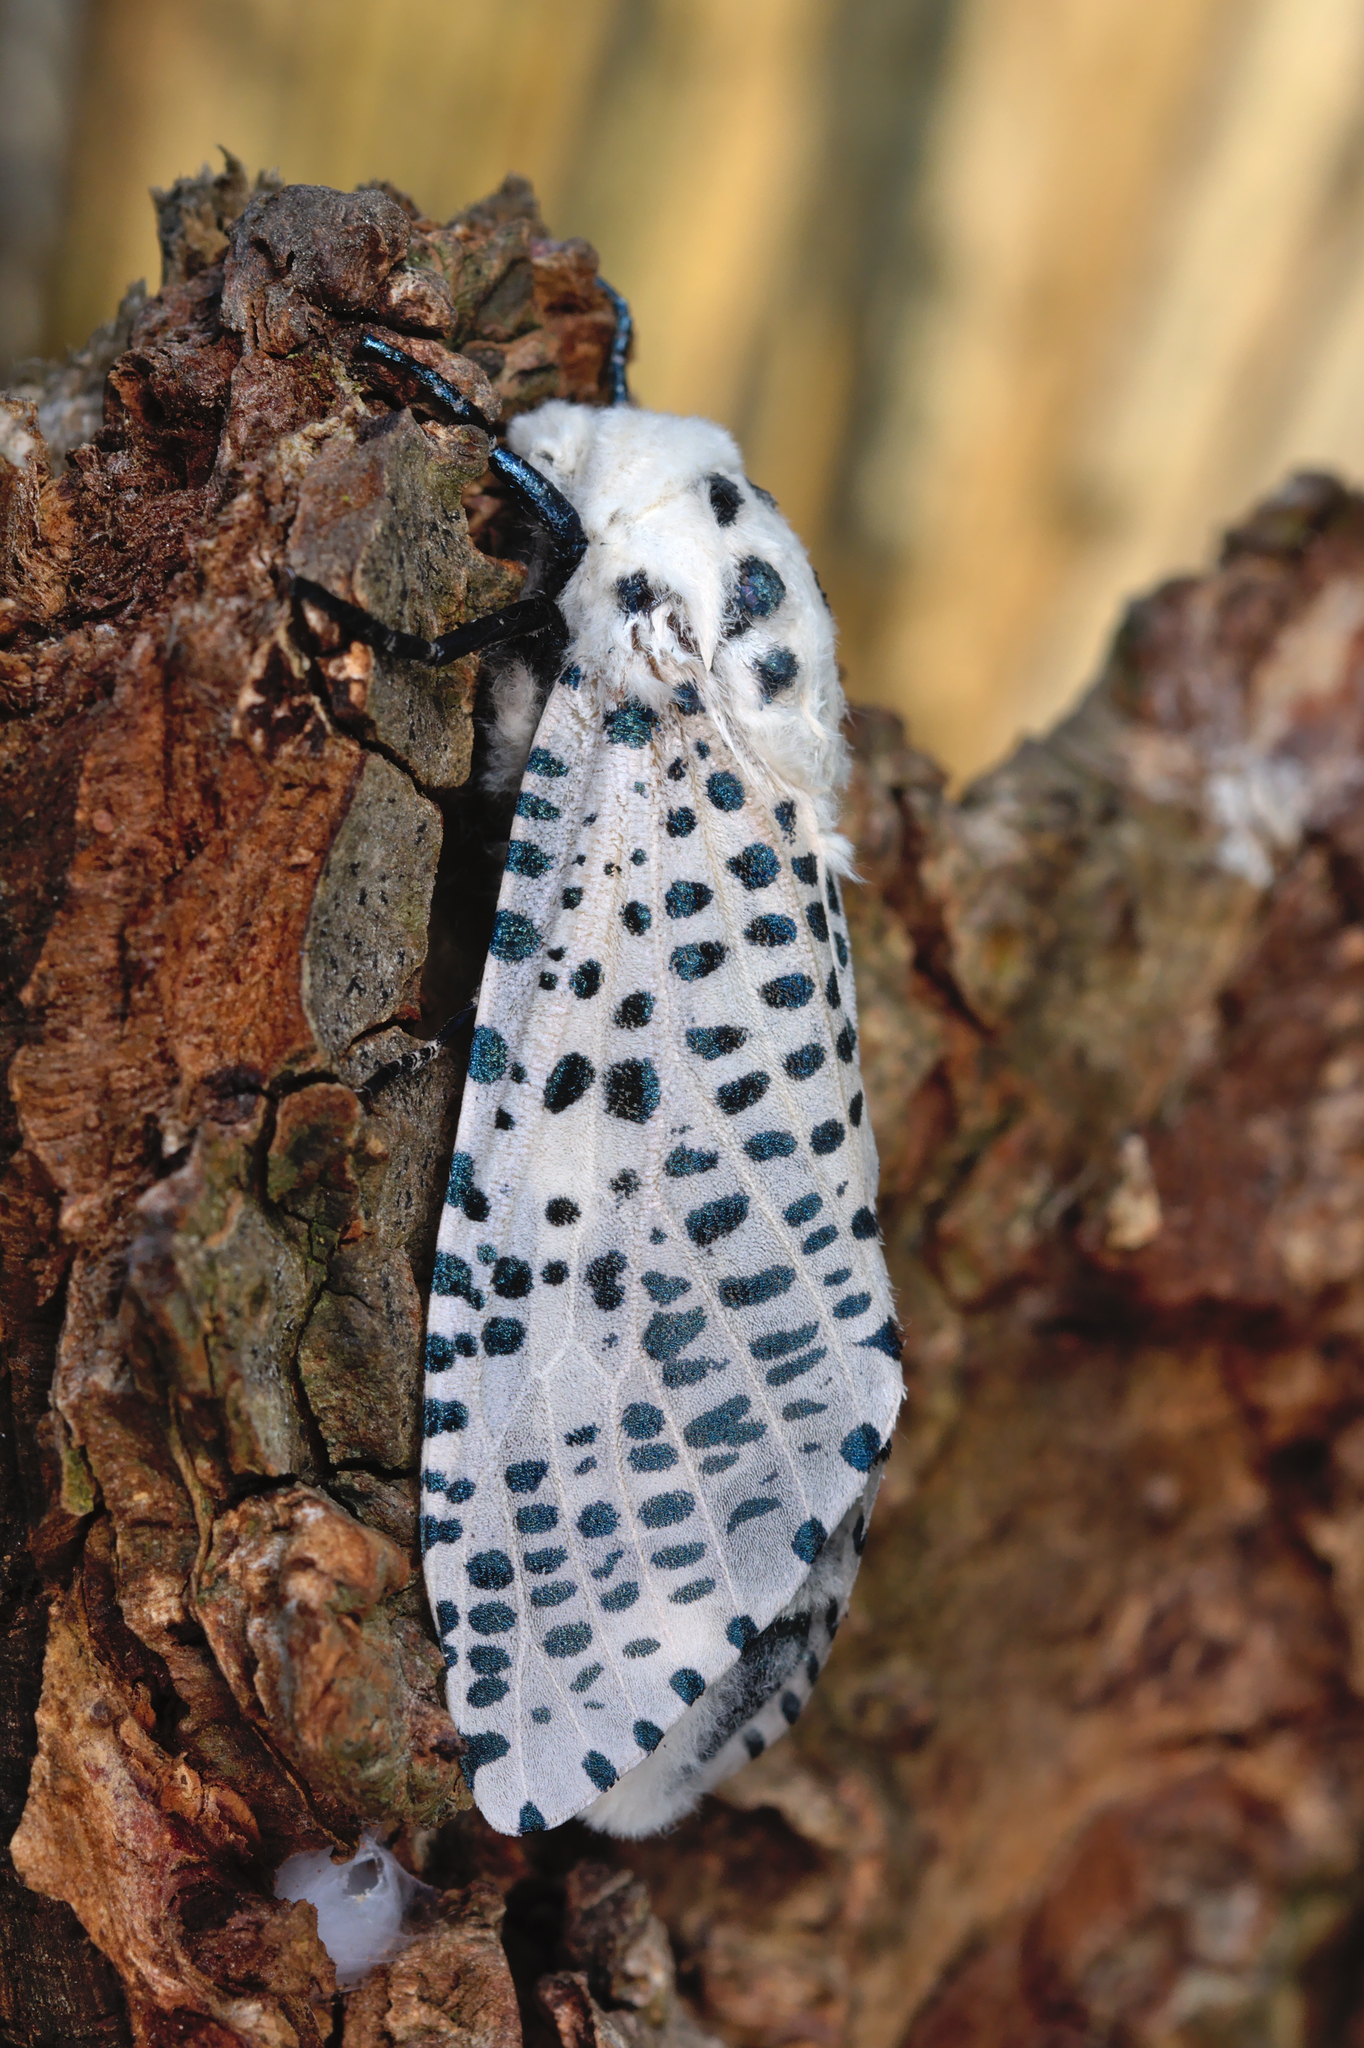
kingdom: Animalia
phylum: Arthropoda
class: Insecta
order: Lepidoptera
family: Cossidae
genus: Zeuzera
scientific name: Zeuzera pyrina
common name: Leopard moth
